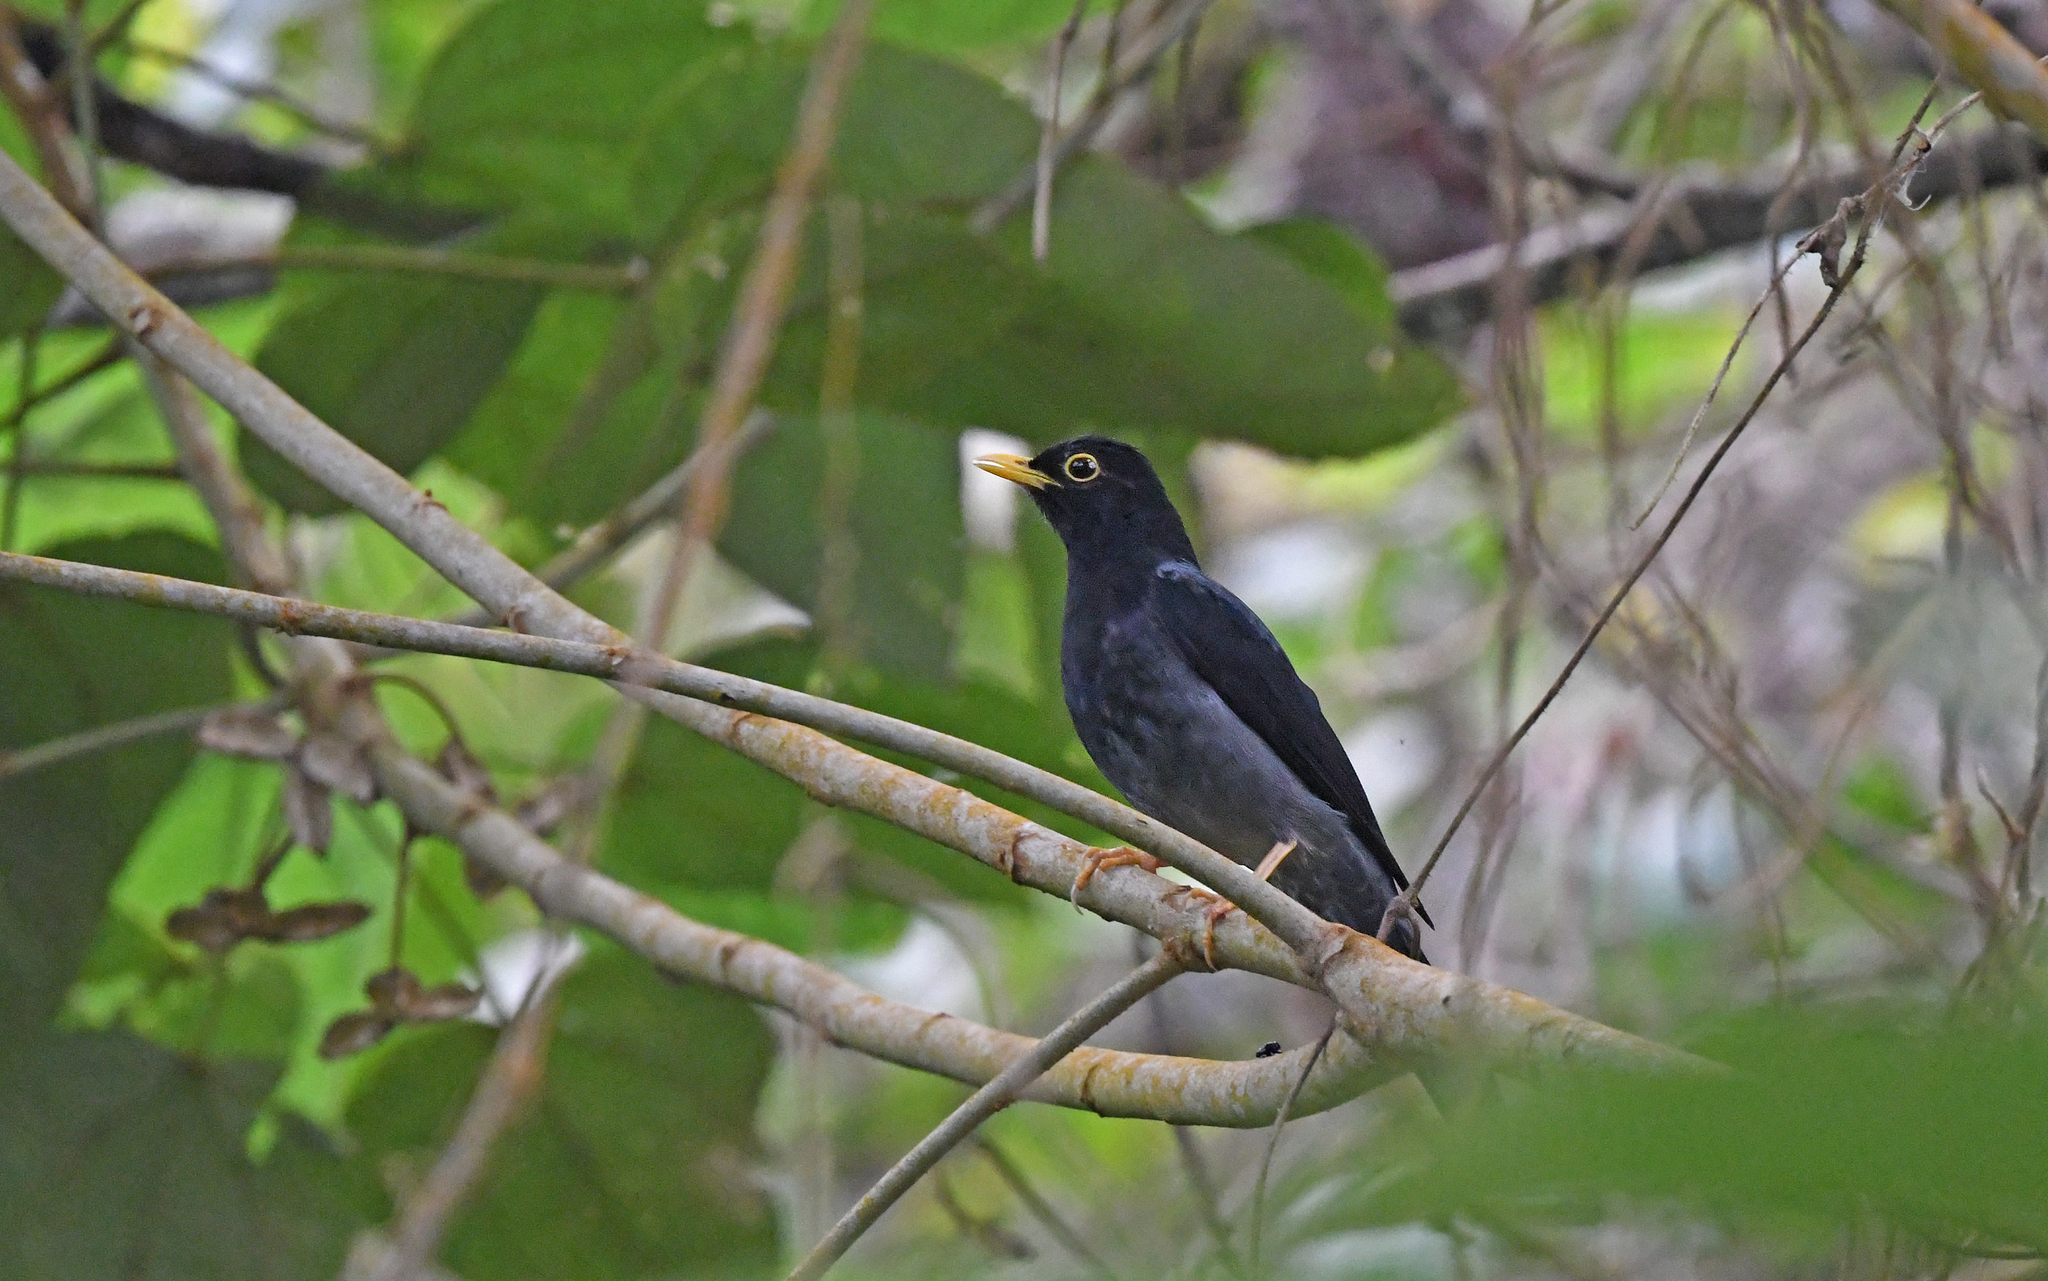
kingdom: Animalia
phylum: Chordata
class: Aves
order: Passeriformes
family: Turdidae
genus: Turdus
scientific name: Turdus flavipes
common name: Yellow-legged thrush
